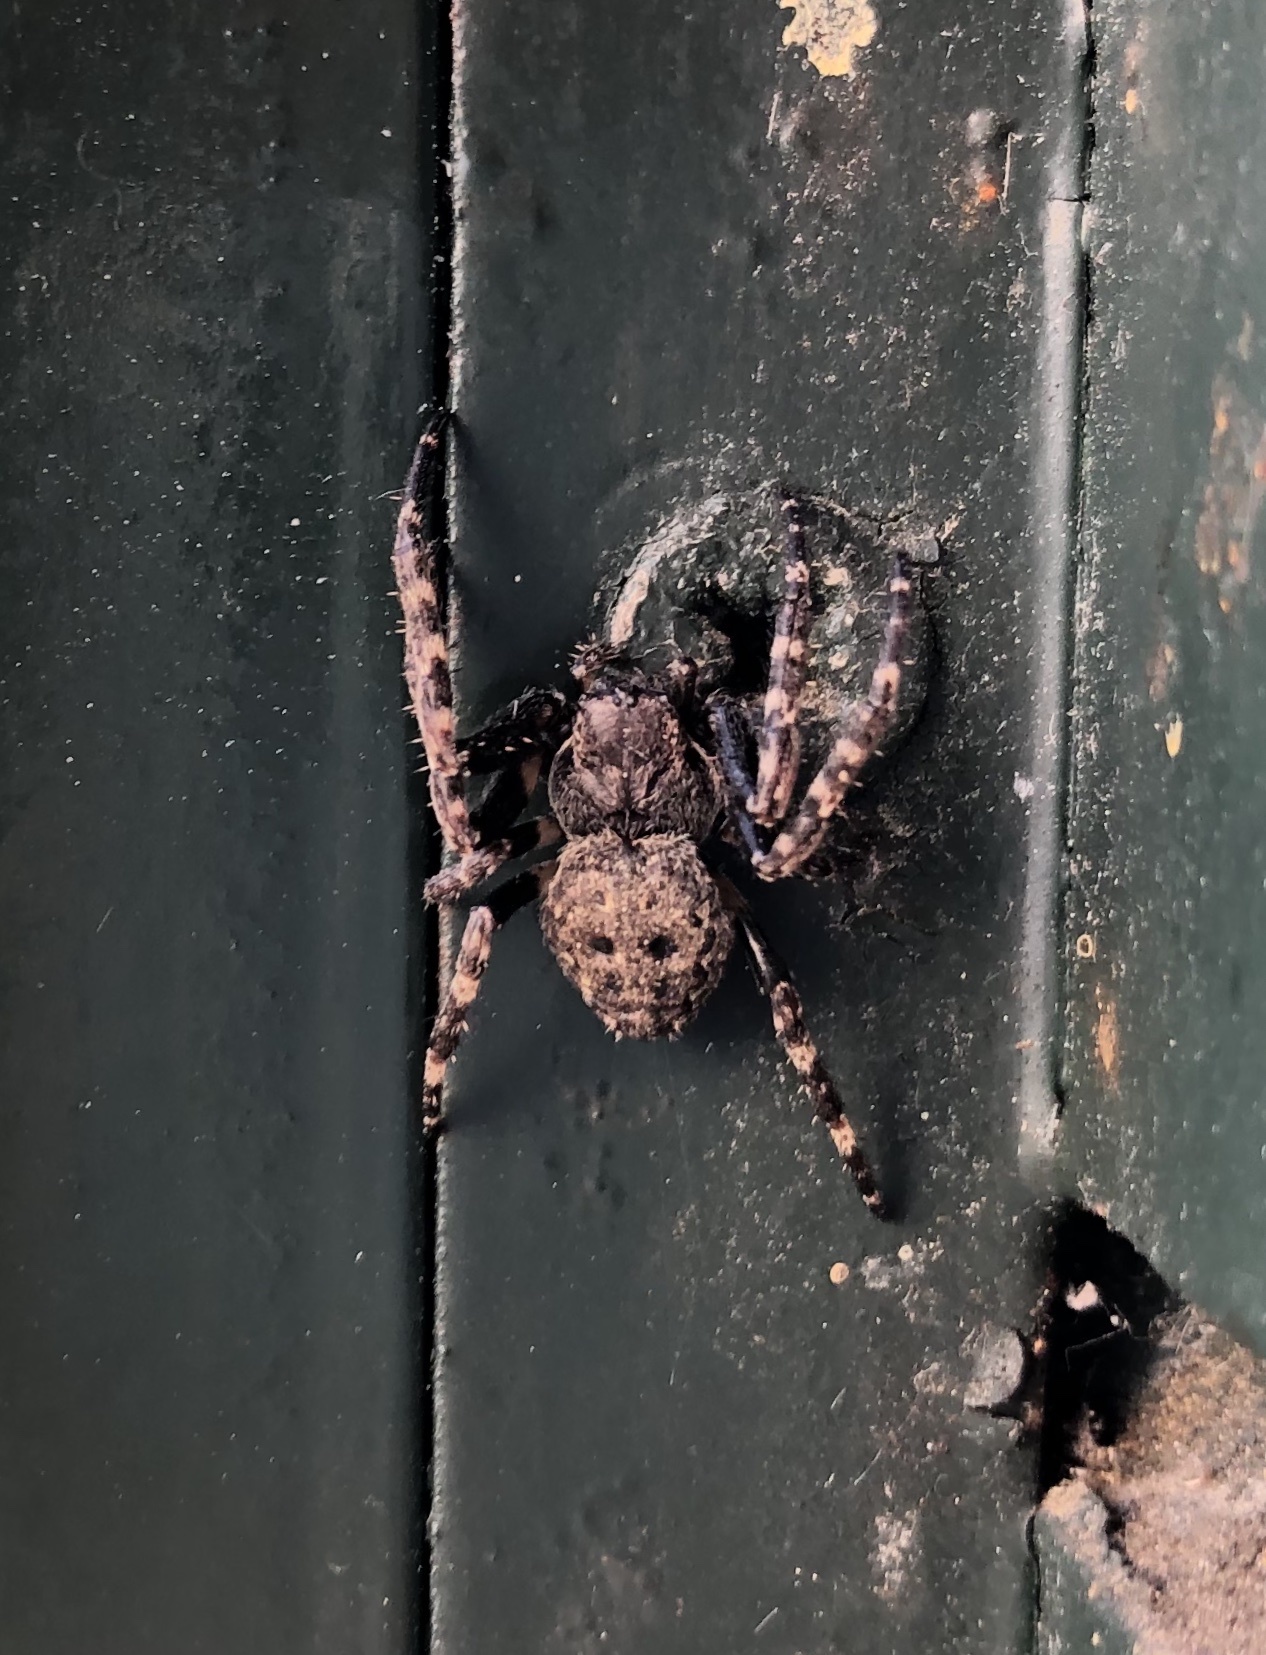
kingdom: Animalia
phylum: Arthropoda
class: Arachnida
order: Araneae
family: Araneidae
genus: Nuctenea
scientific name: Nuctenea umbratica
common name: Toad spider
